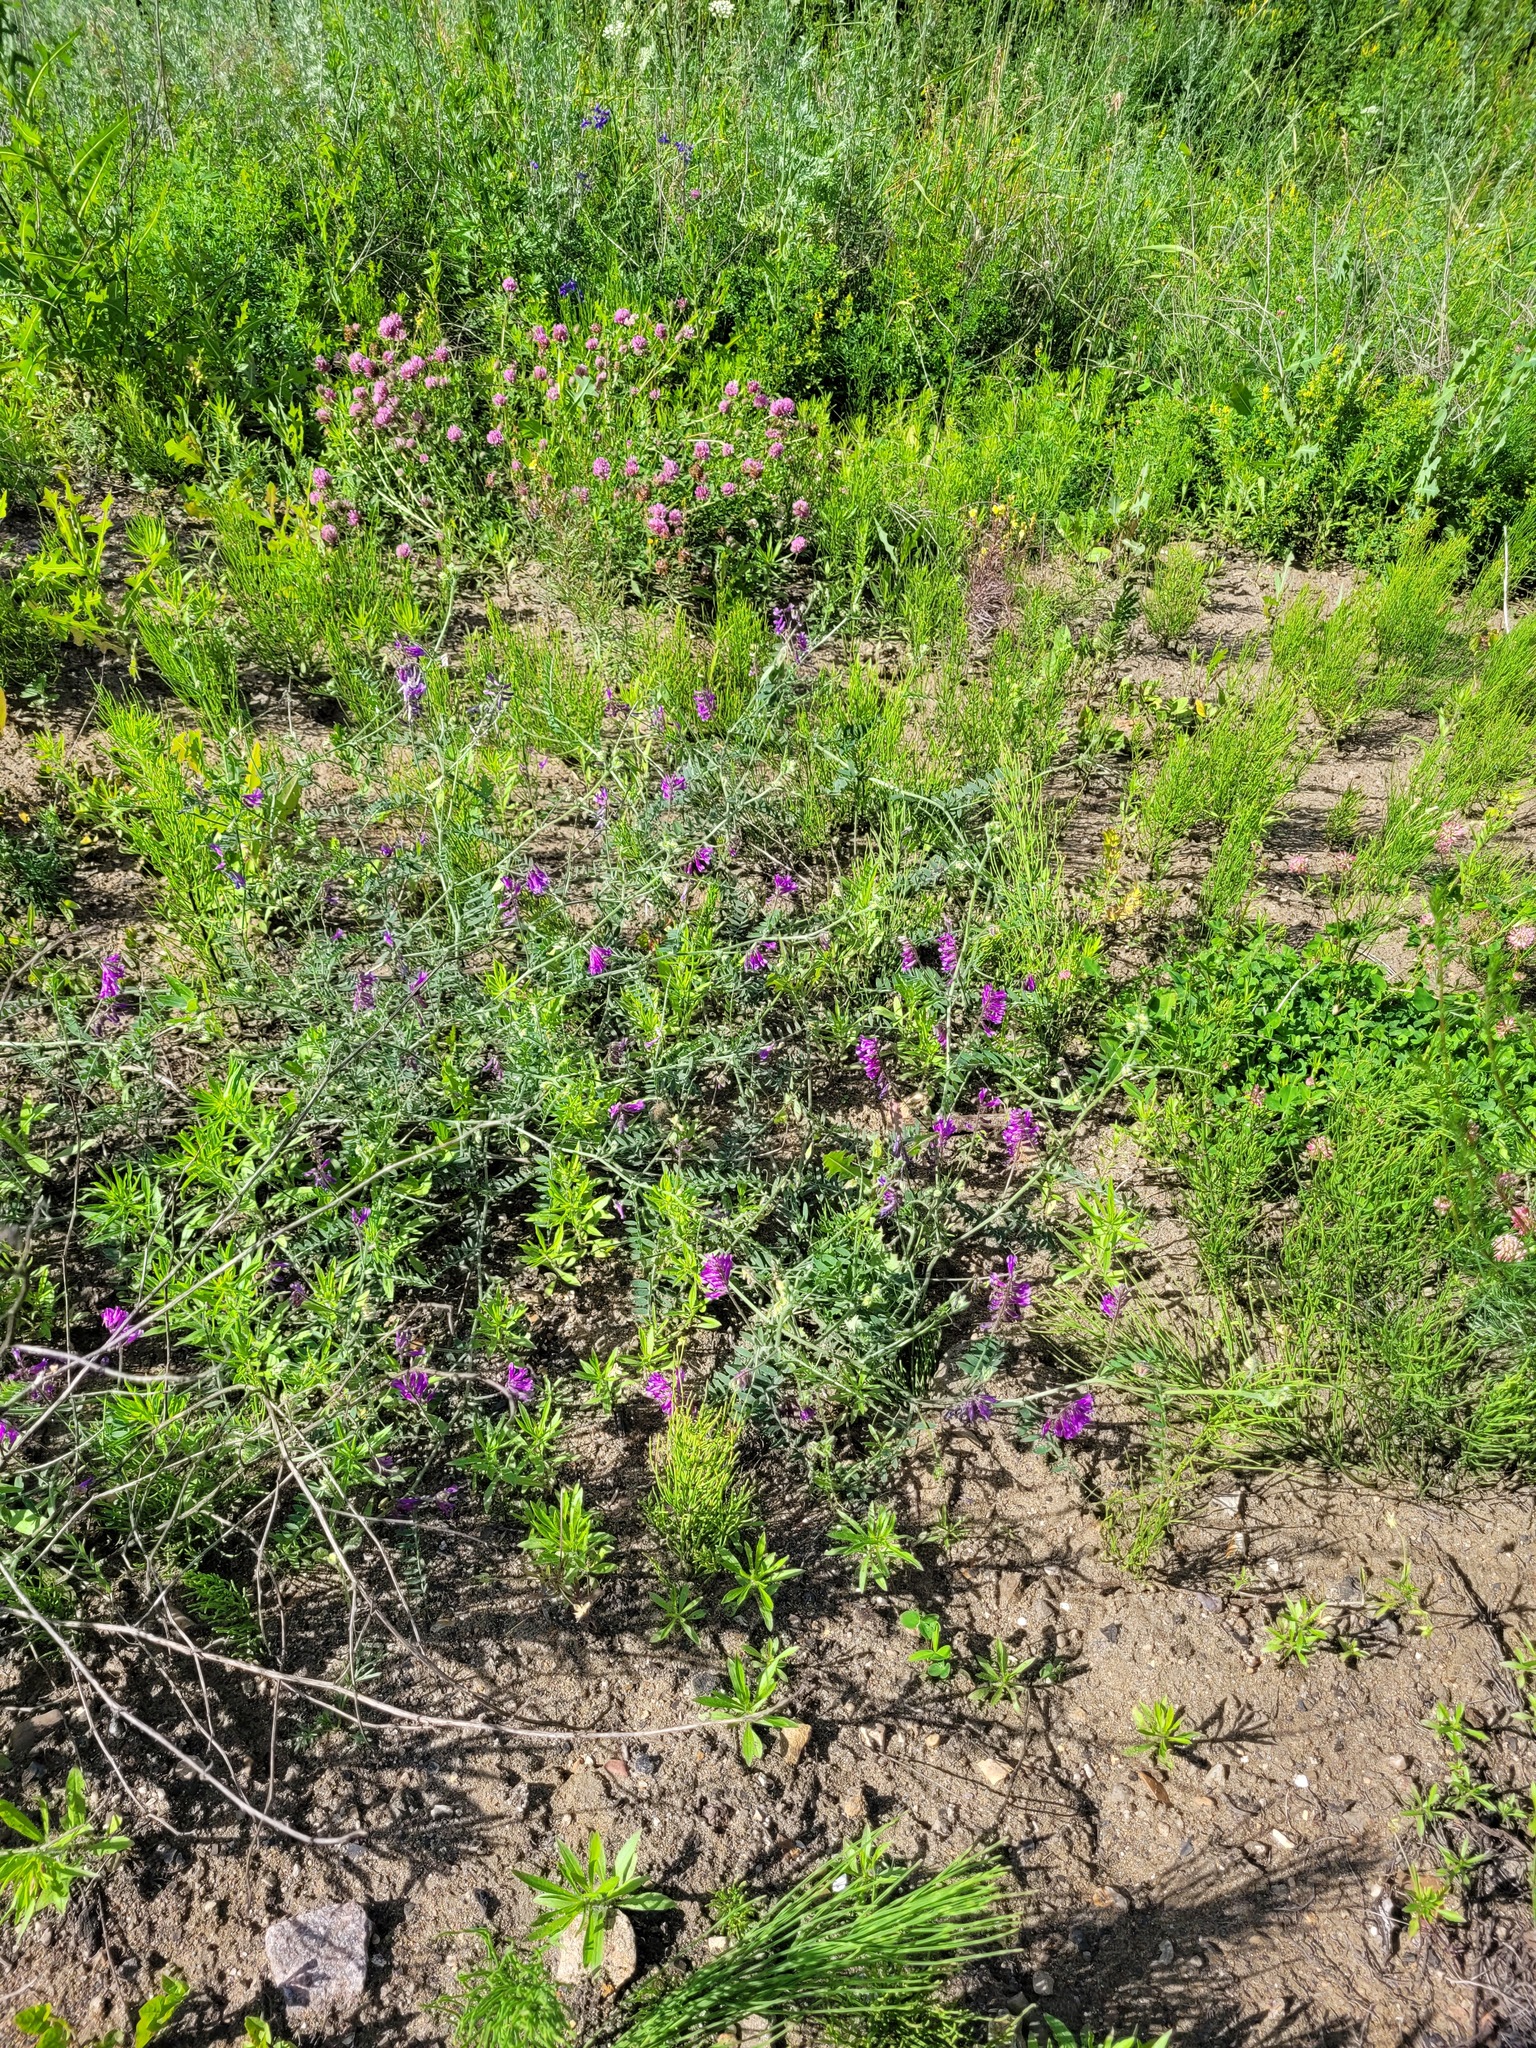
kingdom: Plantae
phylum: Tracheophyta
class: Magnoliopsida
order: Fabales
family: Fabaceae
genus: Vicia
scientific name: Vicia cracca
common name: Bird vetch
